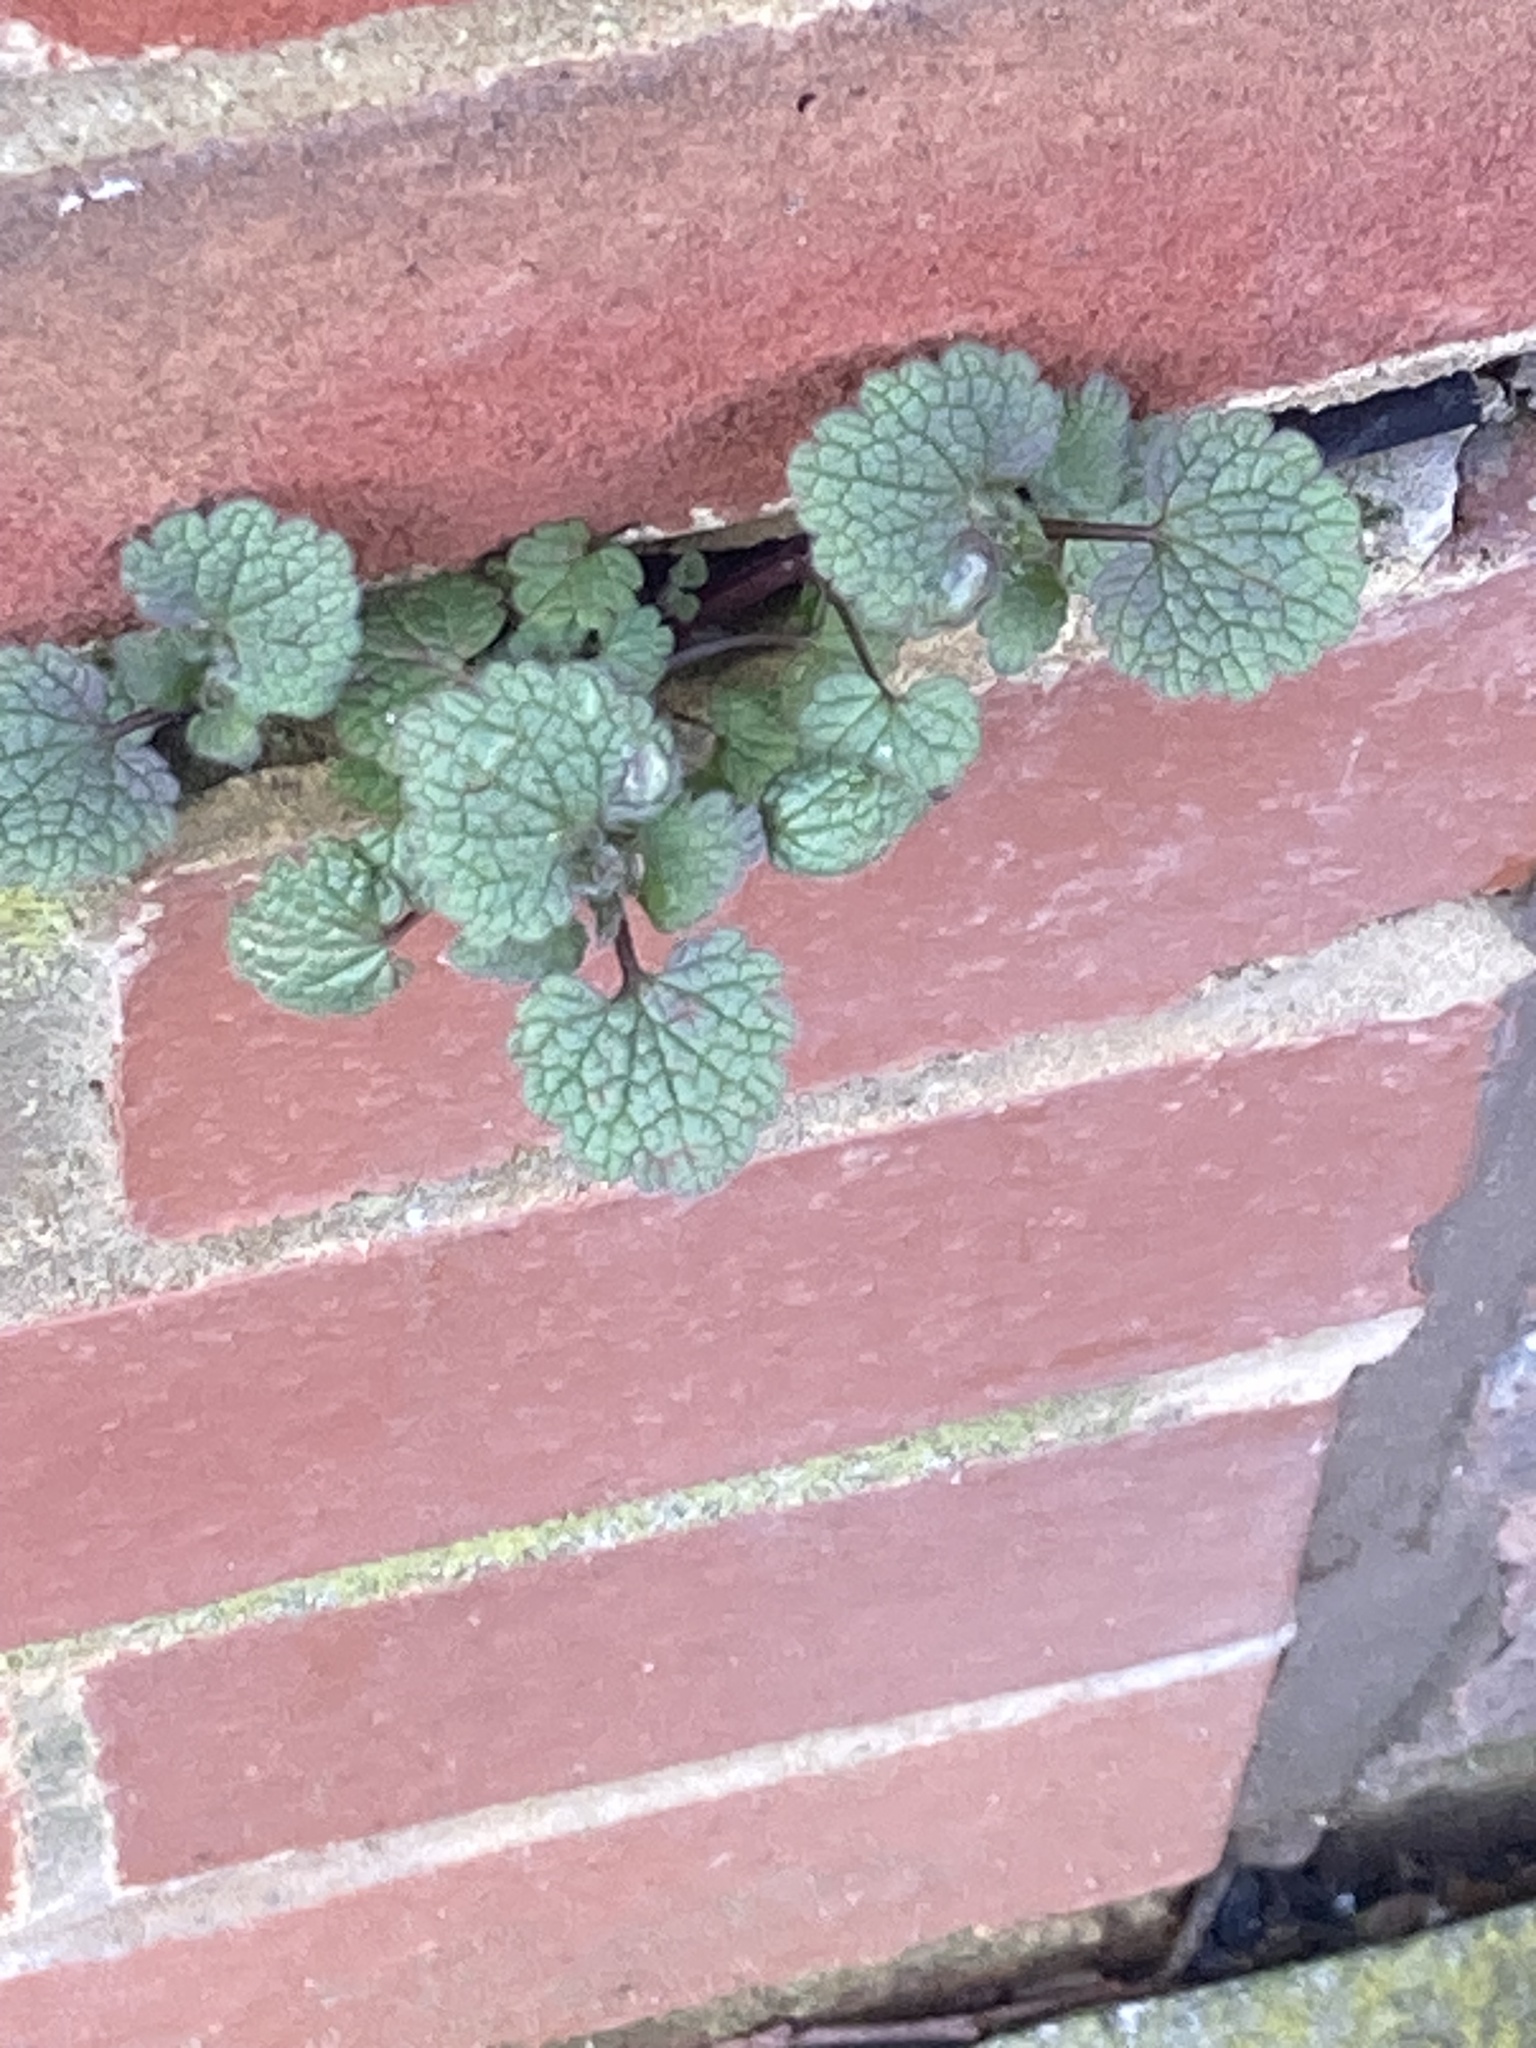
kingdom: Plantae
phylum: Tracheophyta
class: Magnoliopsida
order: Lamiales
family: Lamiaceae
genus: Lamium
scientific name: Lamium purpureum
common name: Red dead-nettle
